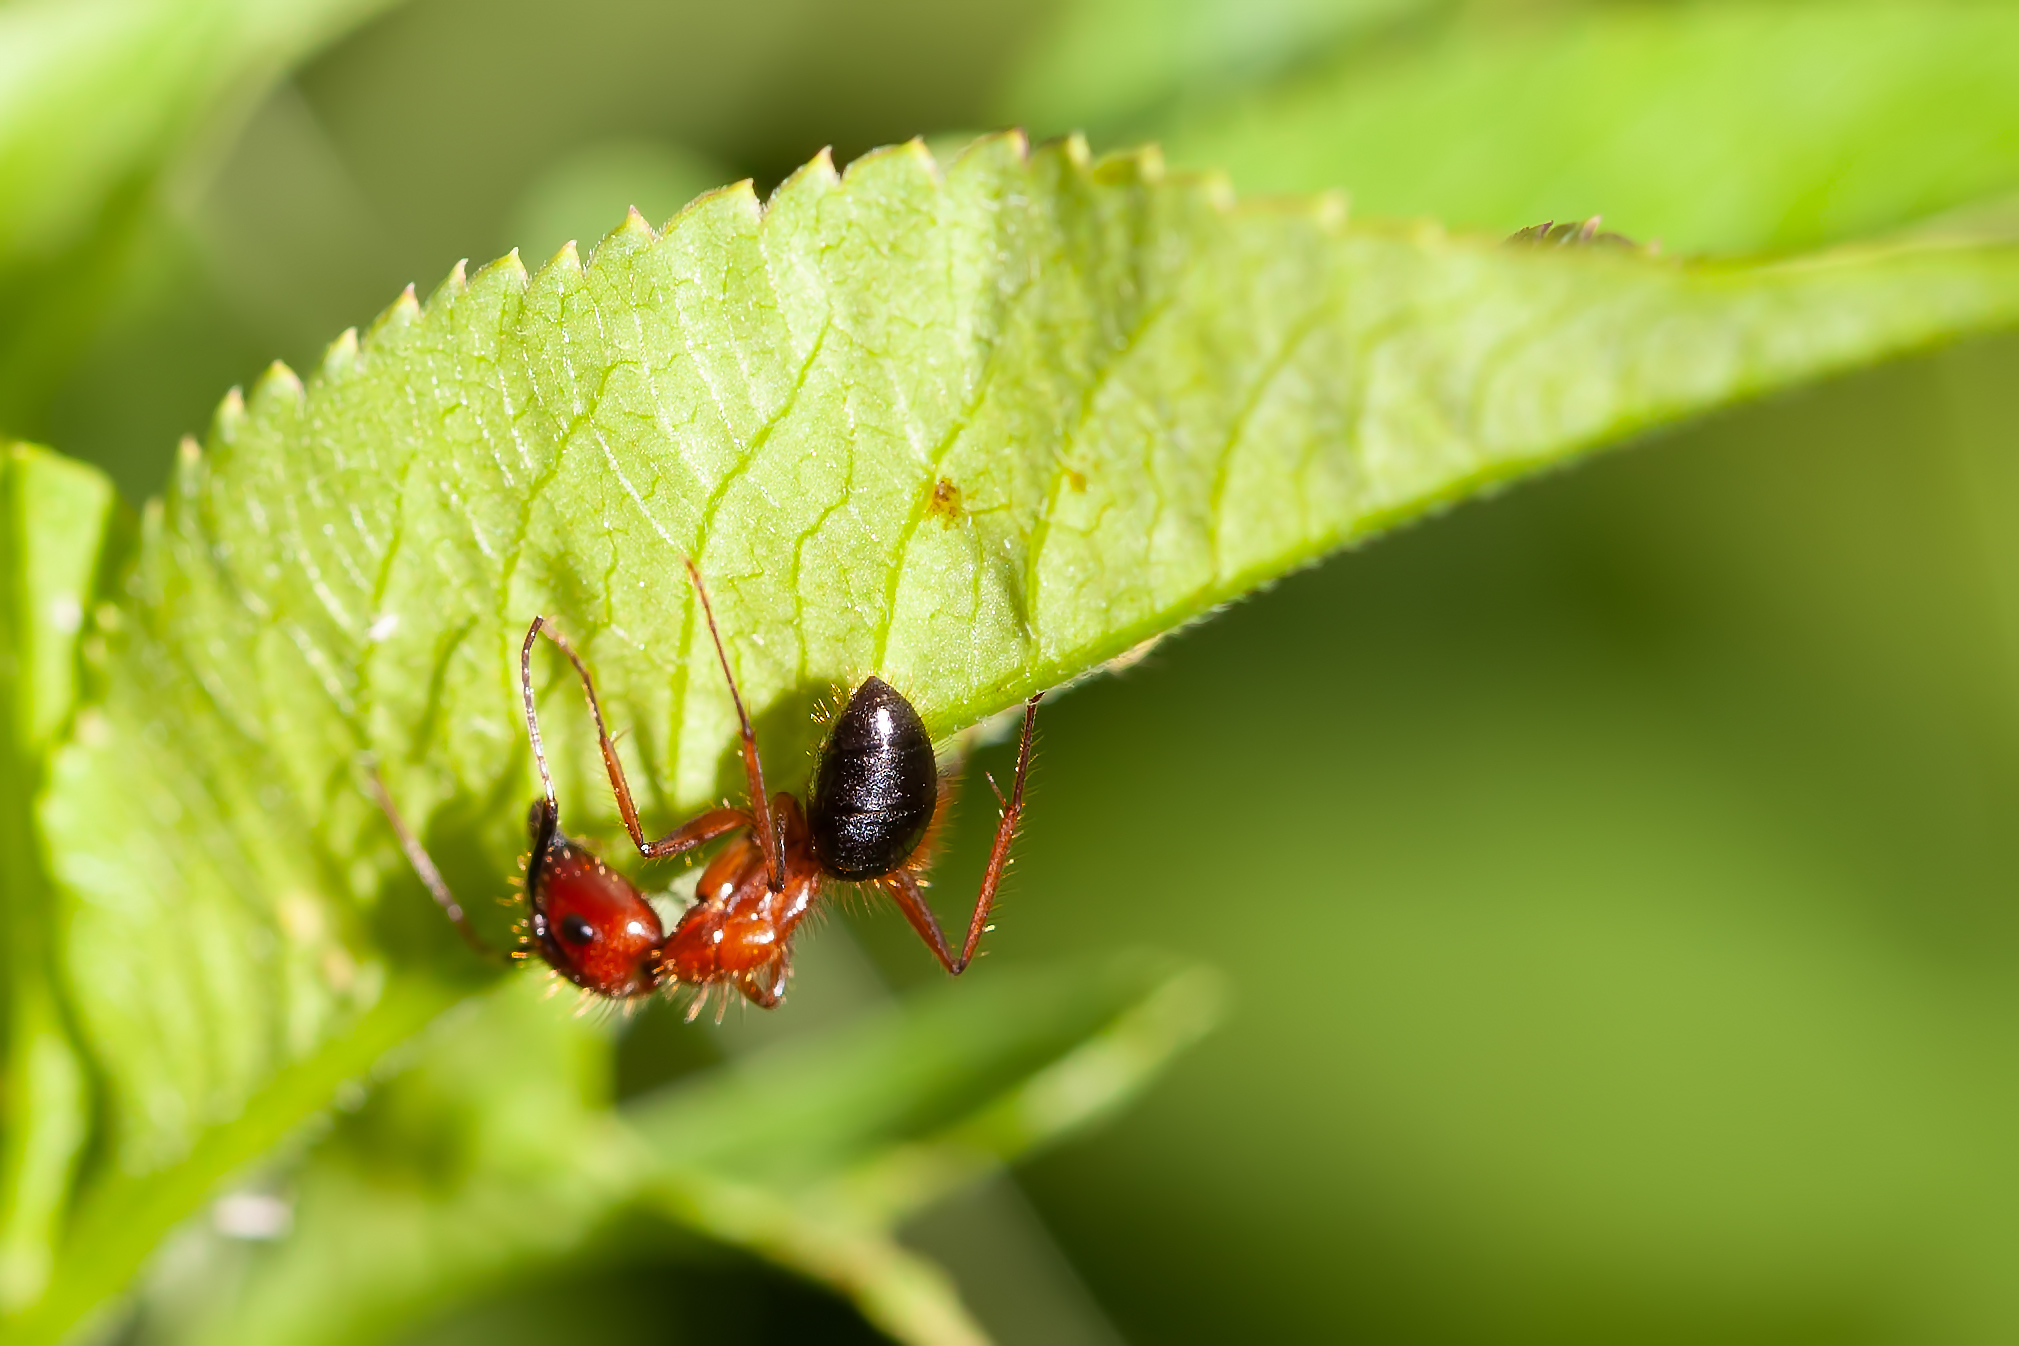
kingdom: Animalia
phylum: Arthropoda
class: Insecta
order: Hymenoptera
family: Formicidae
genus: Camponotus
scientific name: Camponotus floridanus
